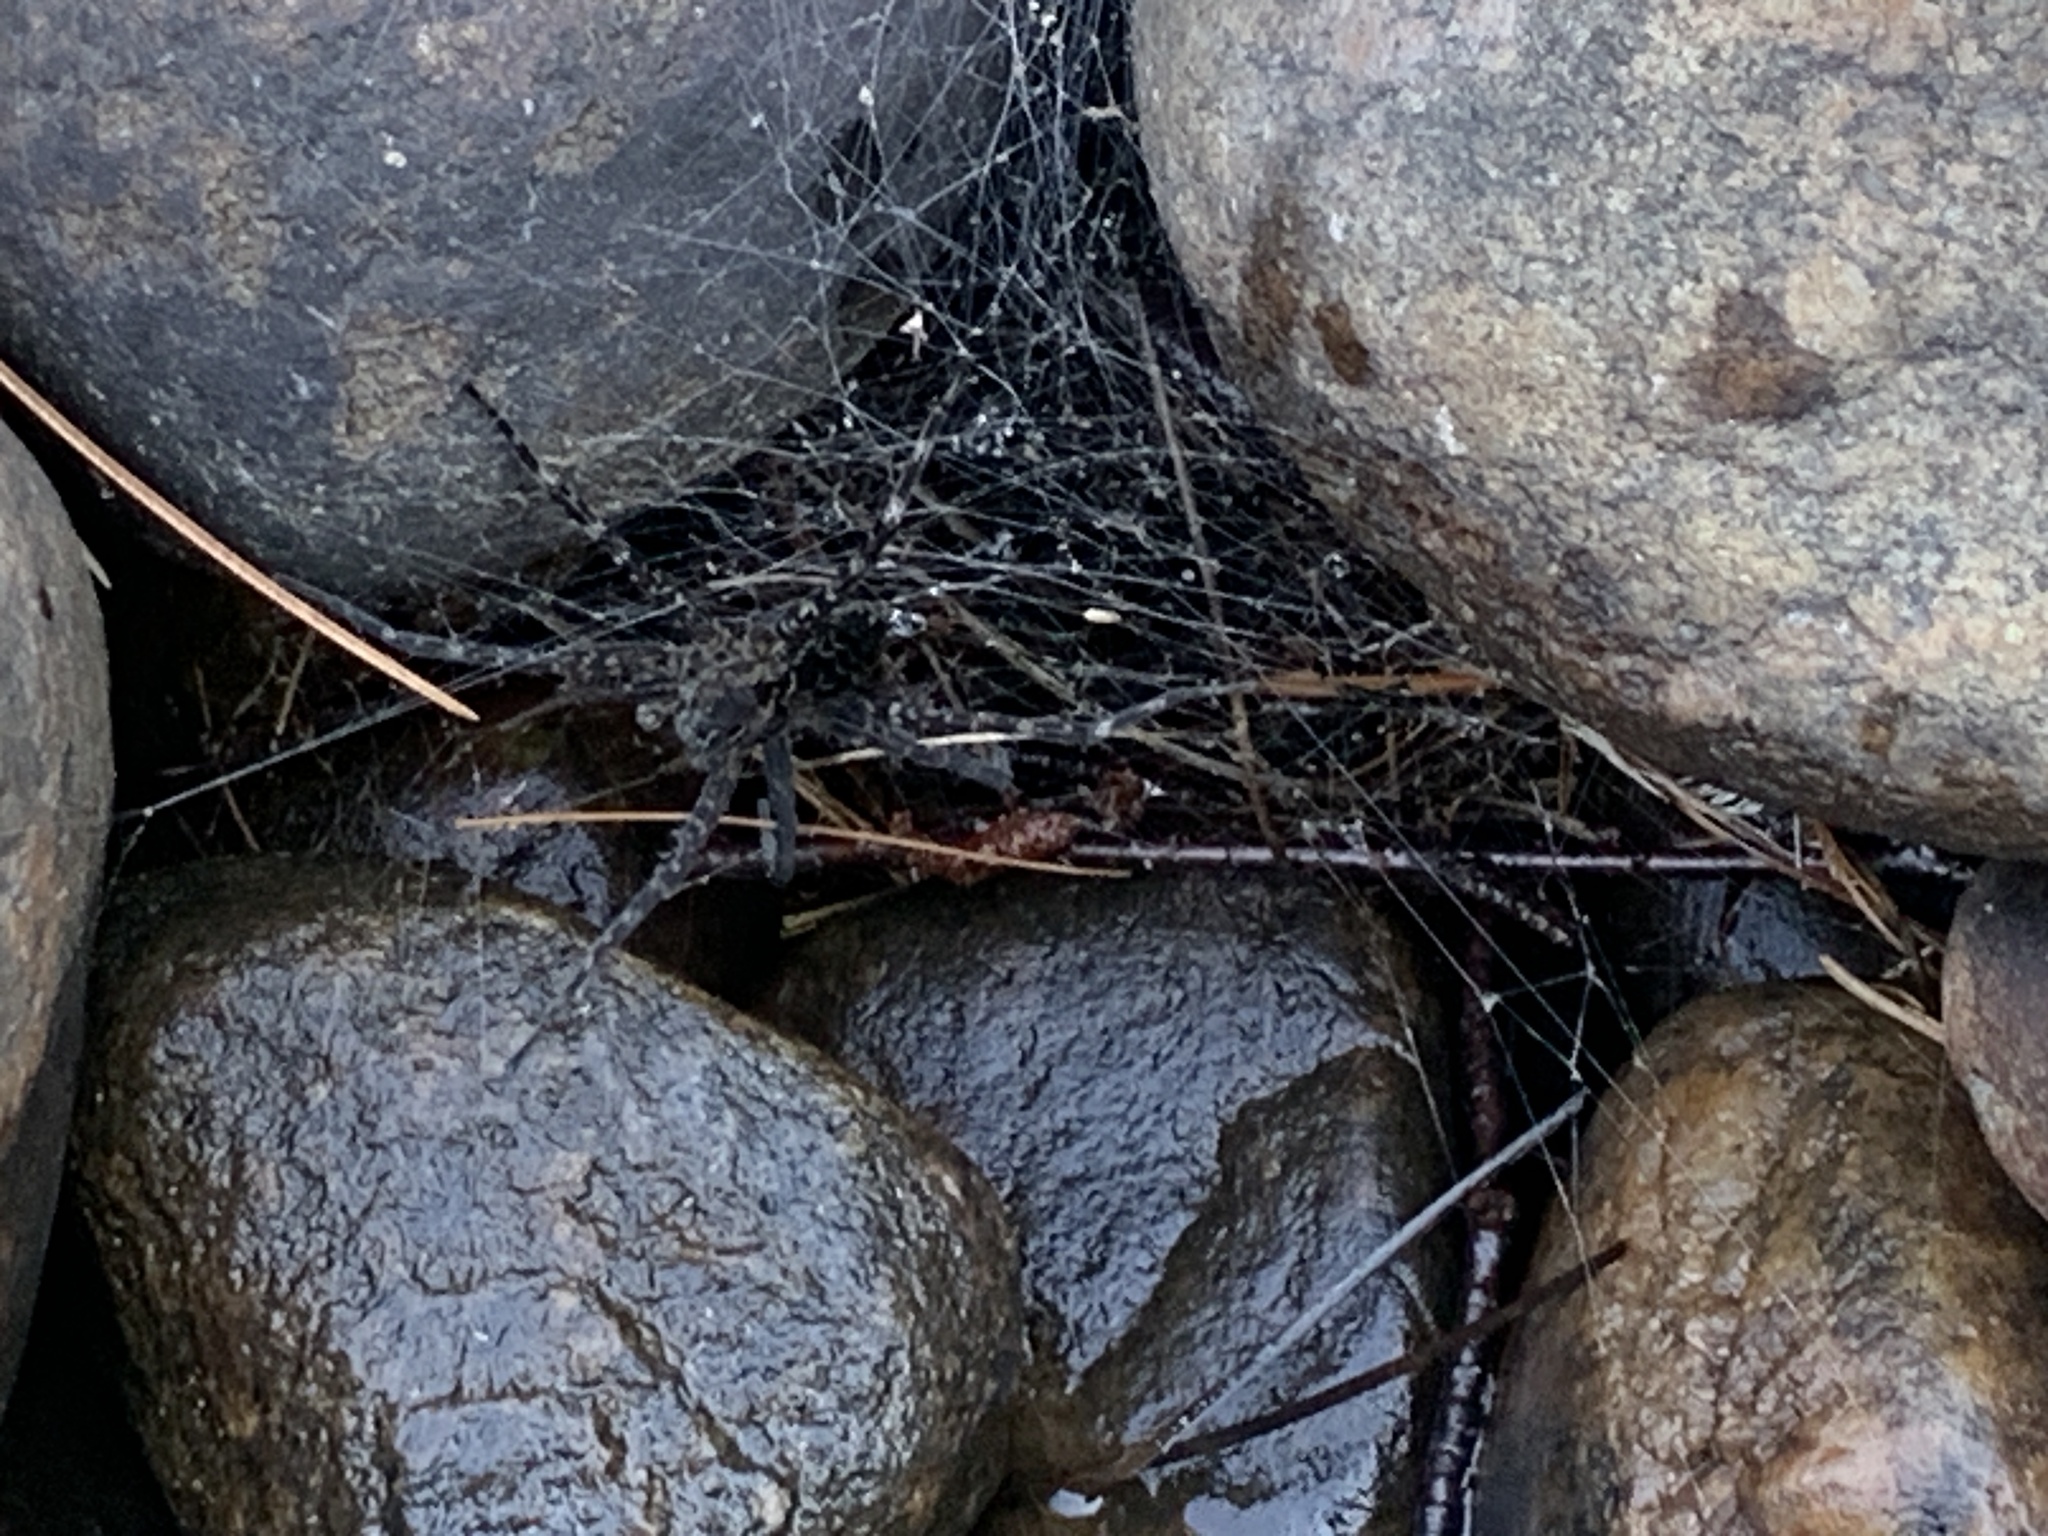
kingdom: Animalia
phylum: Arthropoda
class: Arachnida
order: Araneae
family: Pisauridae
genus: Dolomedes
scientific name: Dolomedes scriptus
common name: Striped fishing spider
